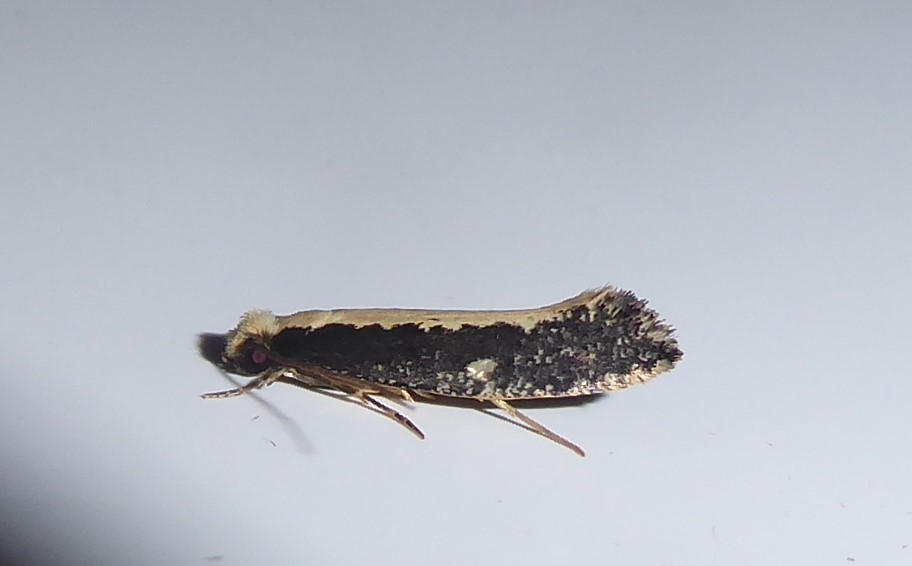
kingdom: Animalia
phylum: Arthropoda
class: Insecta
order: Lepidoptera
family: Tineidae
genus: Monopis
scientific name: Monopis ethelella
